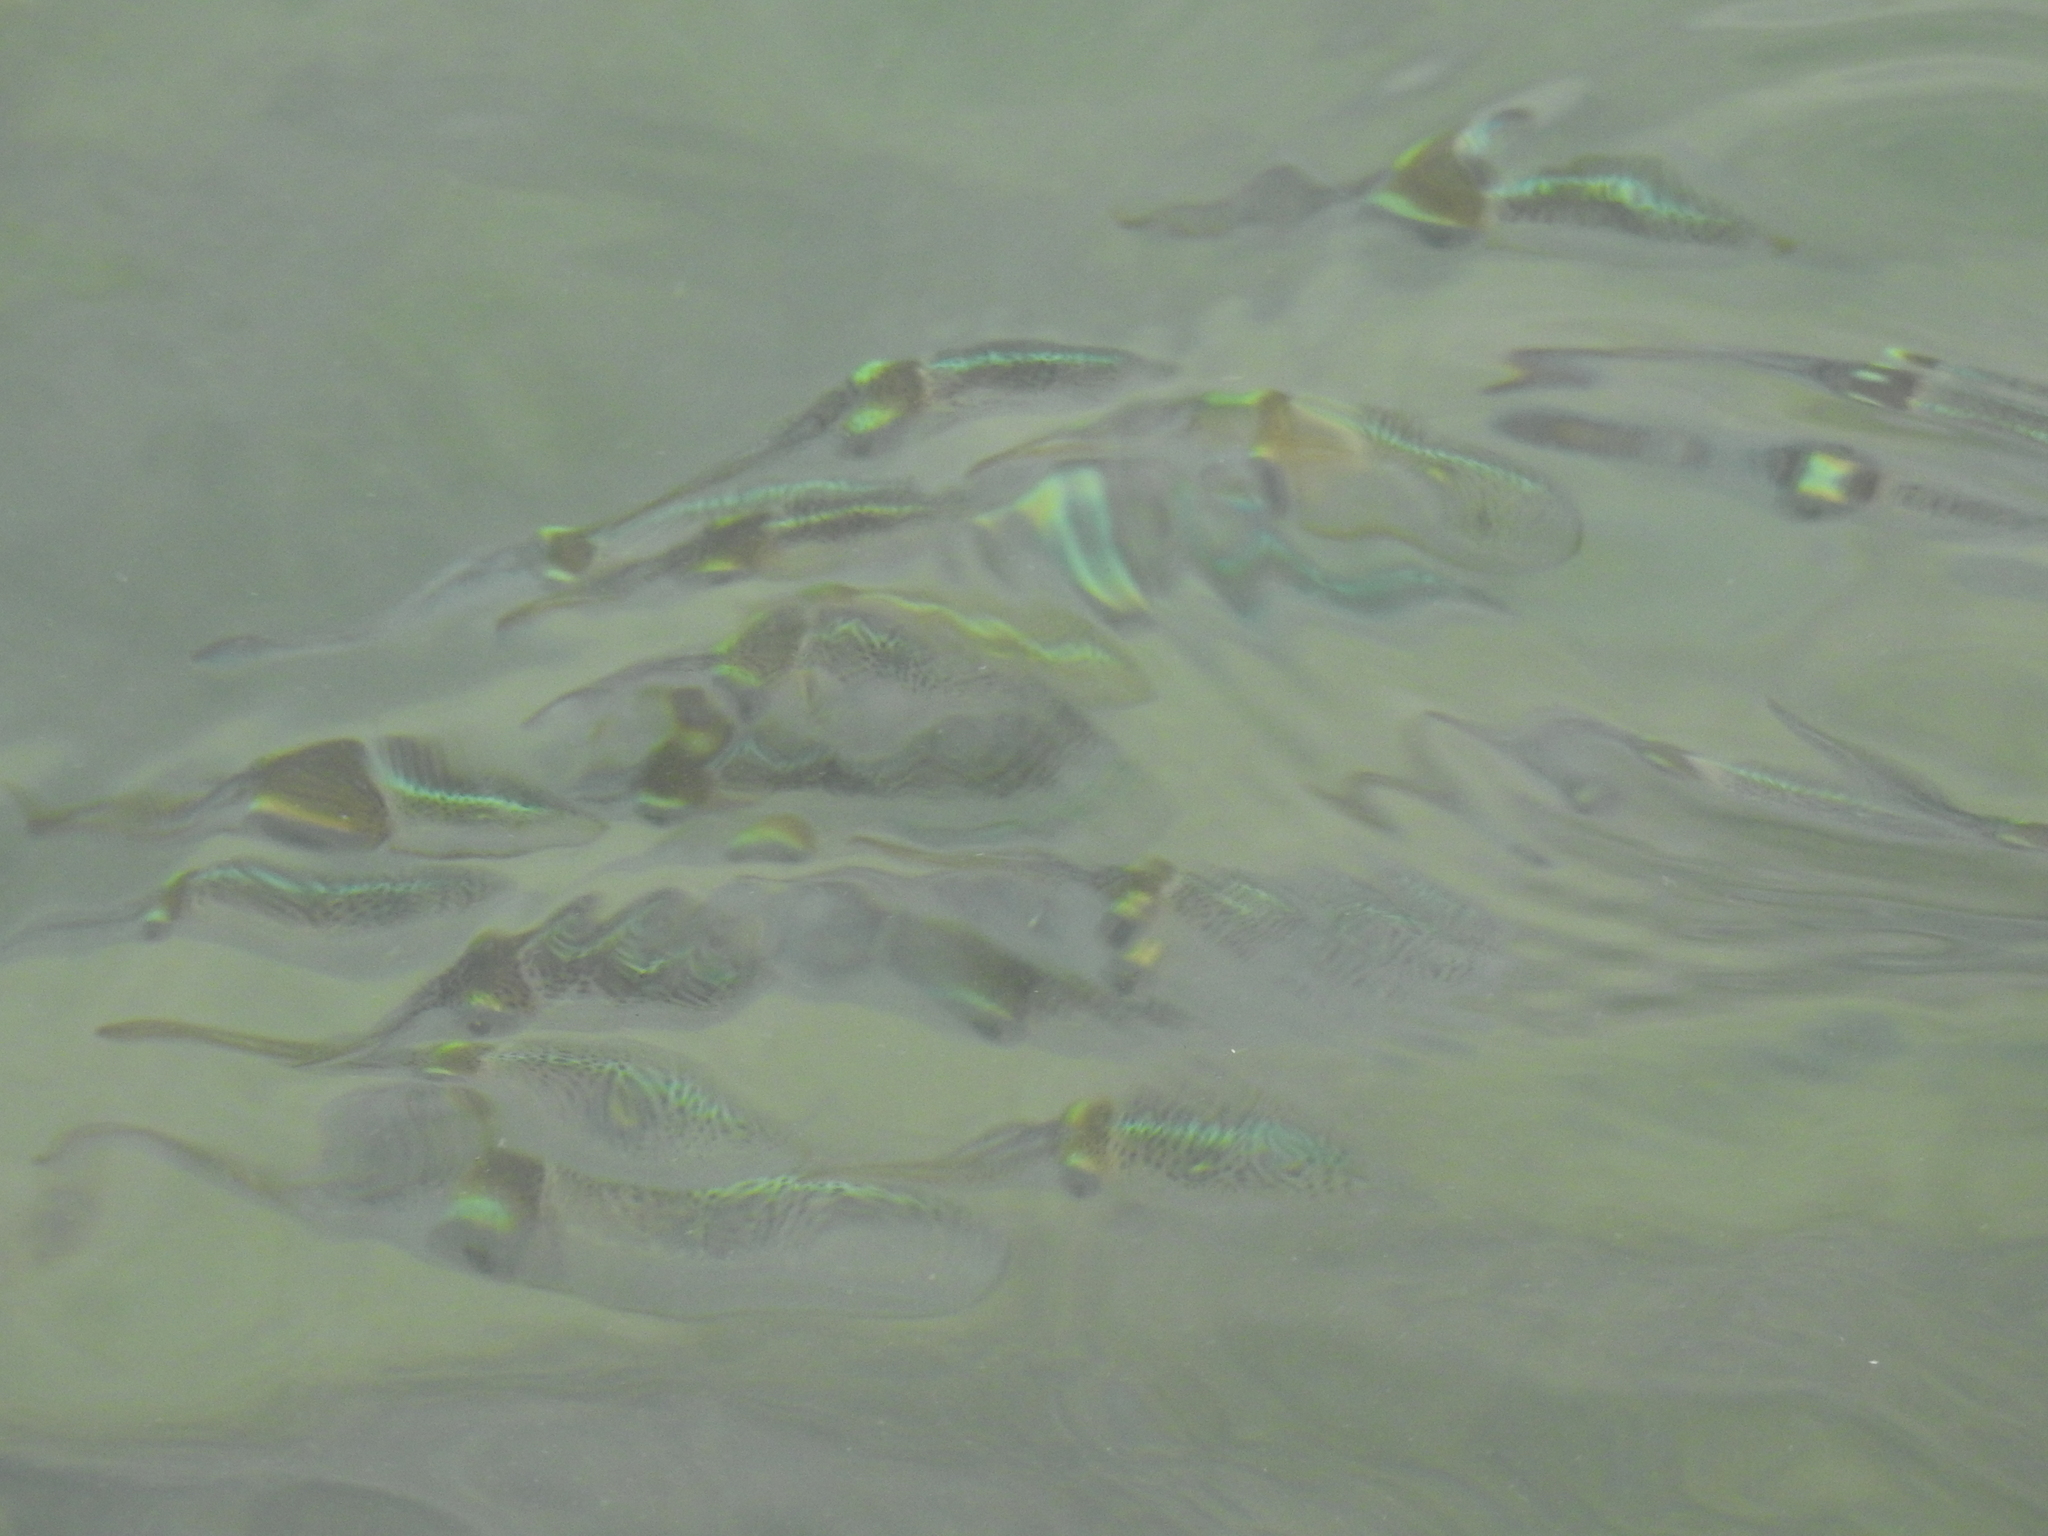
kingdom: Animalia
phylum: Mollusca
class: Cephalopoda
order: Myopsida
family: Loliginidae
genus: Sepioteuthis
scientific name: Sepioteuthis sepioidea
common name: Caribbean reef squid
